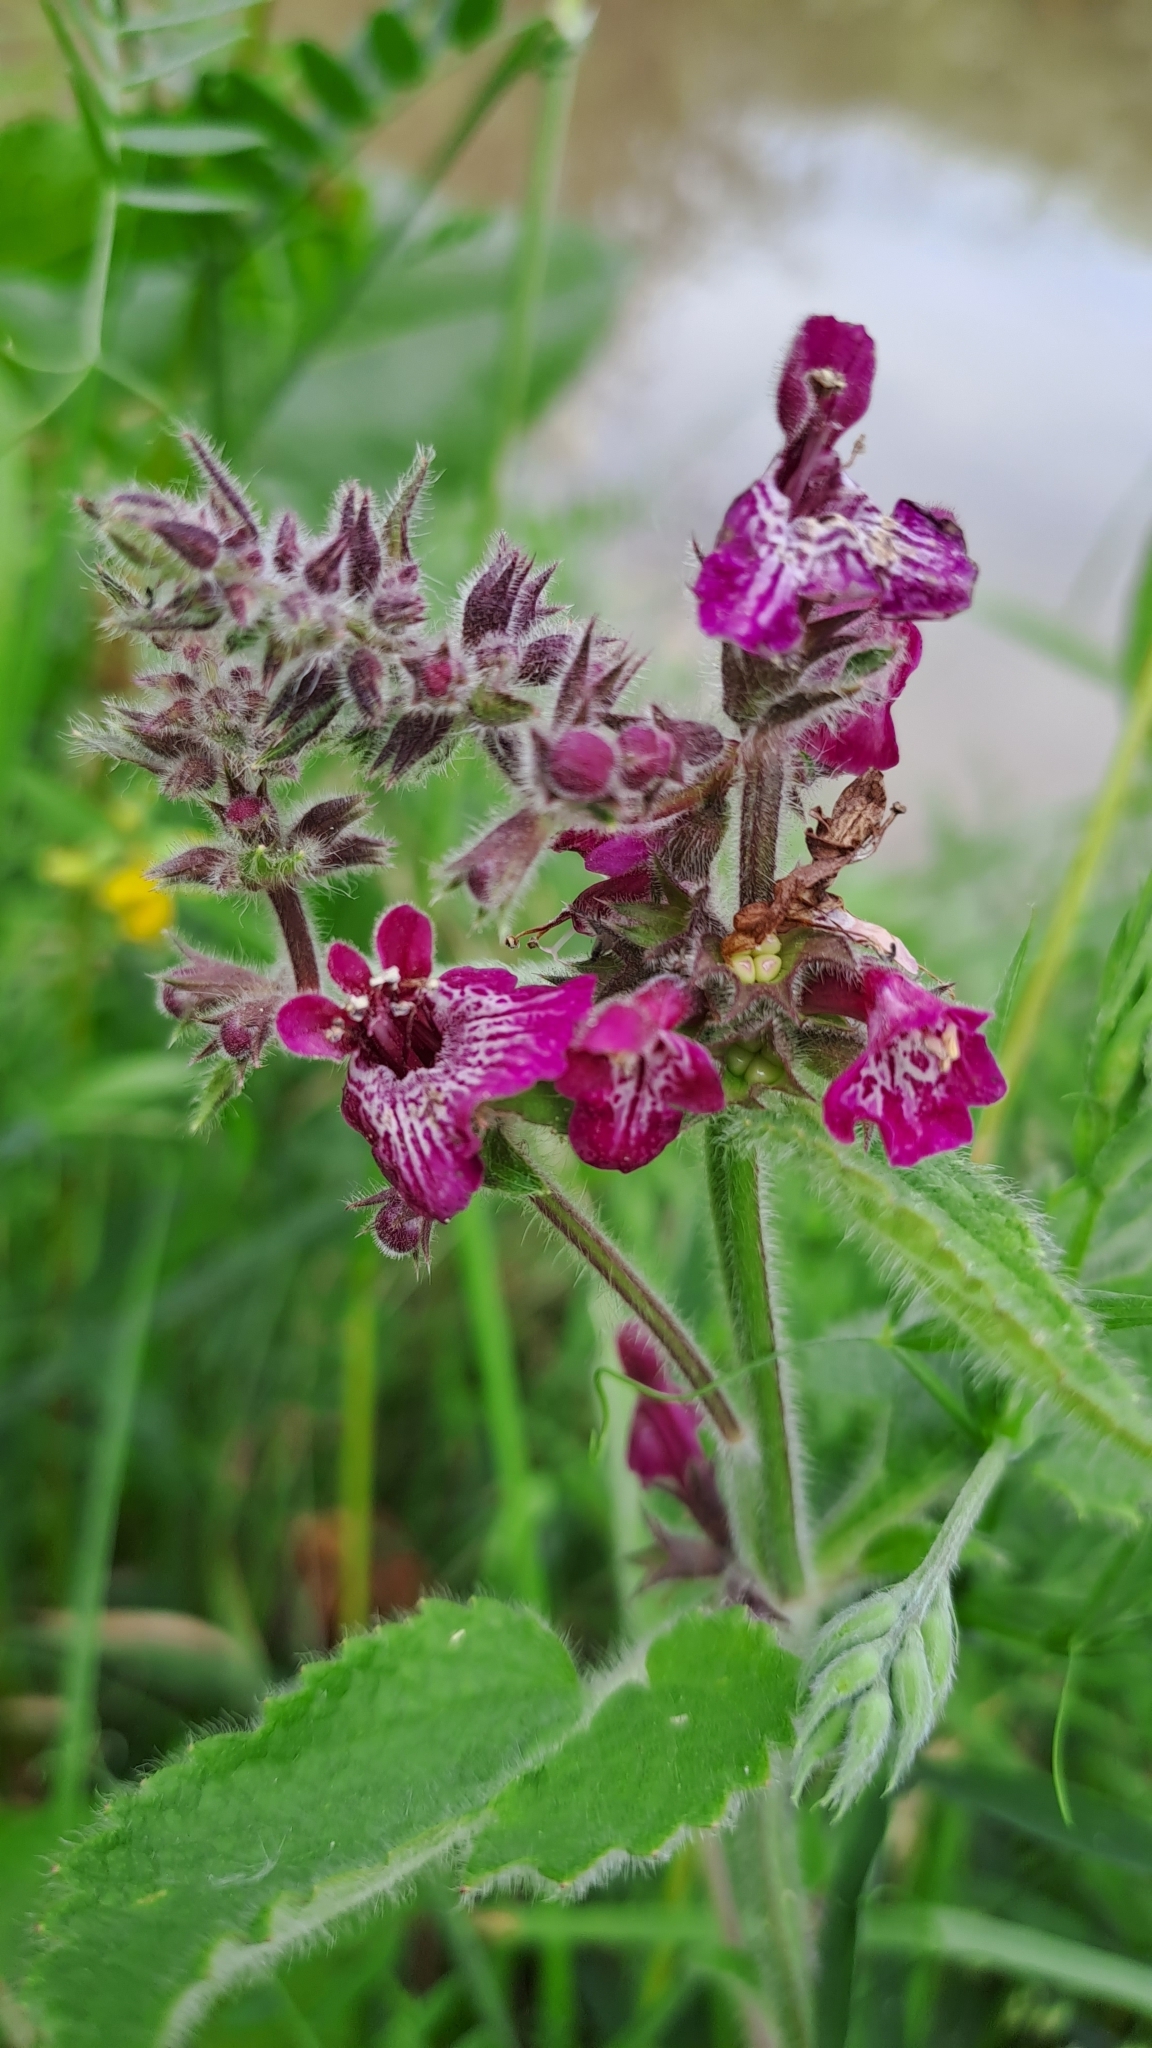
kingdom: Plantae
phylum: Tracheophyta
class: Magnoliopsida
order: Lamiales
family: Lamiaceae
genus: Stachys
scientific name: Stachys sylvatica
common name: Hedge woundwort
